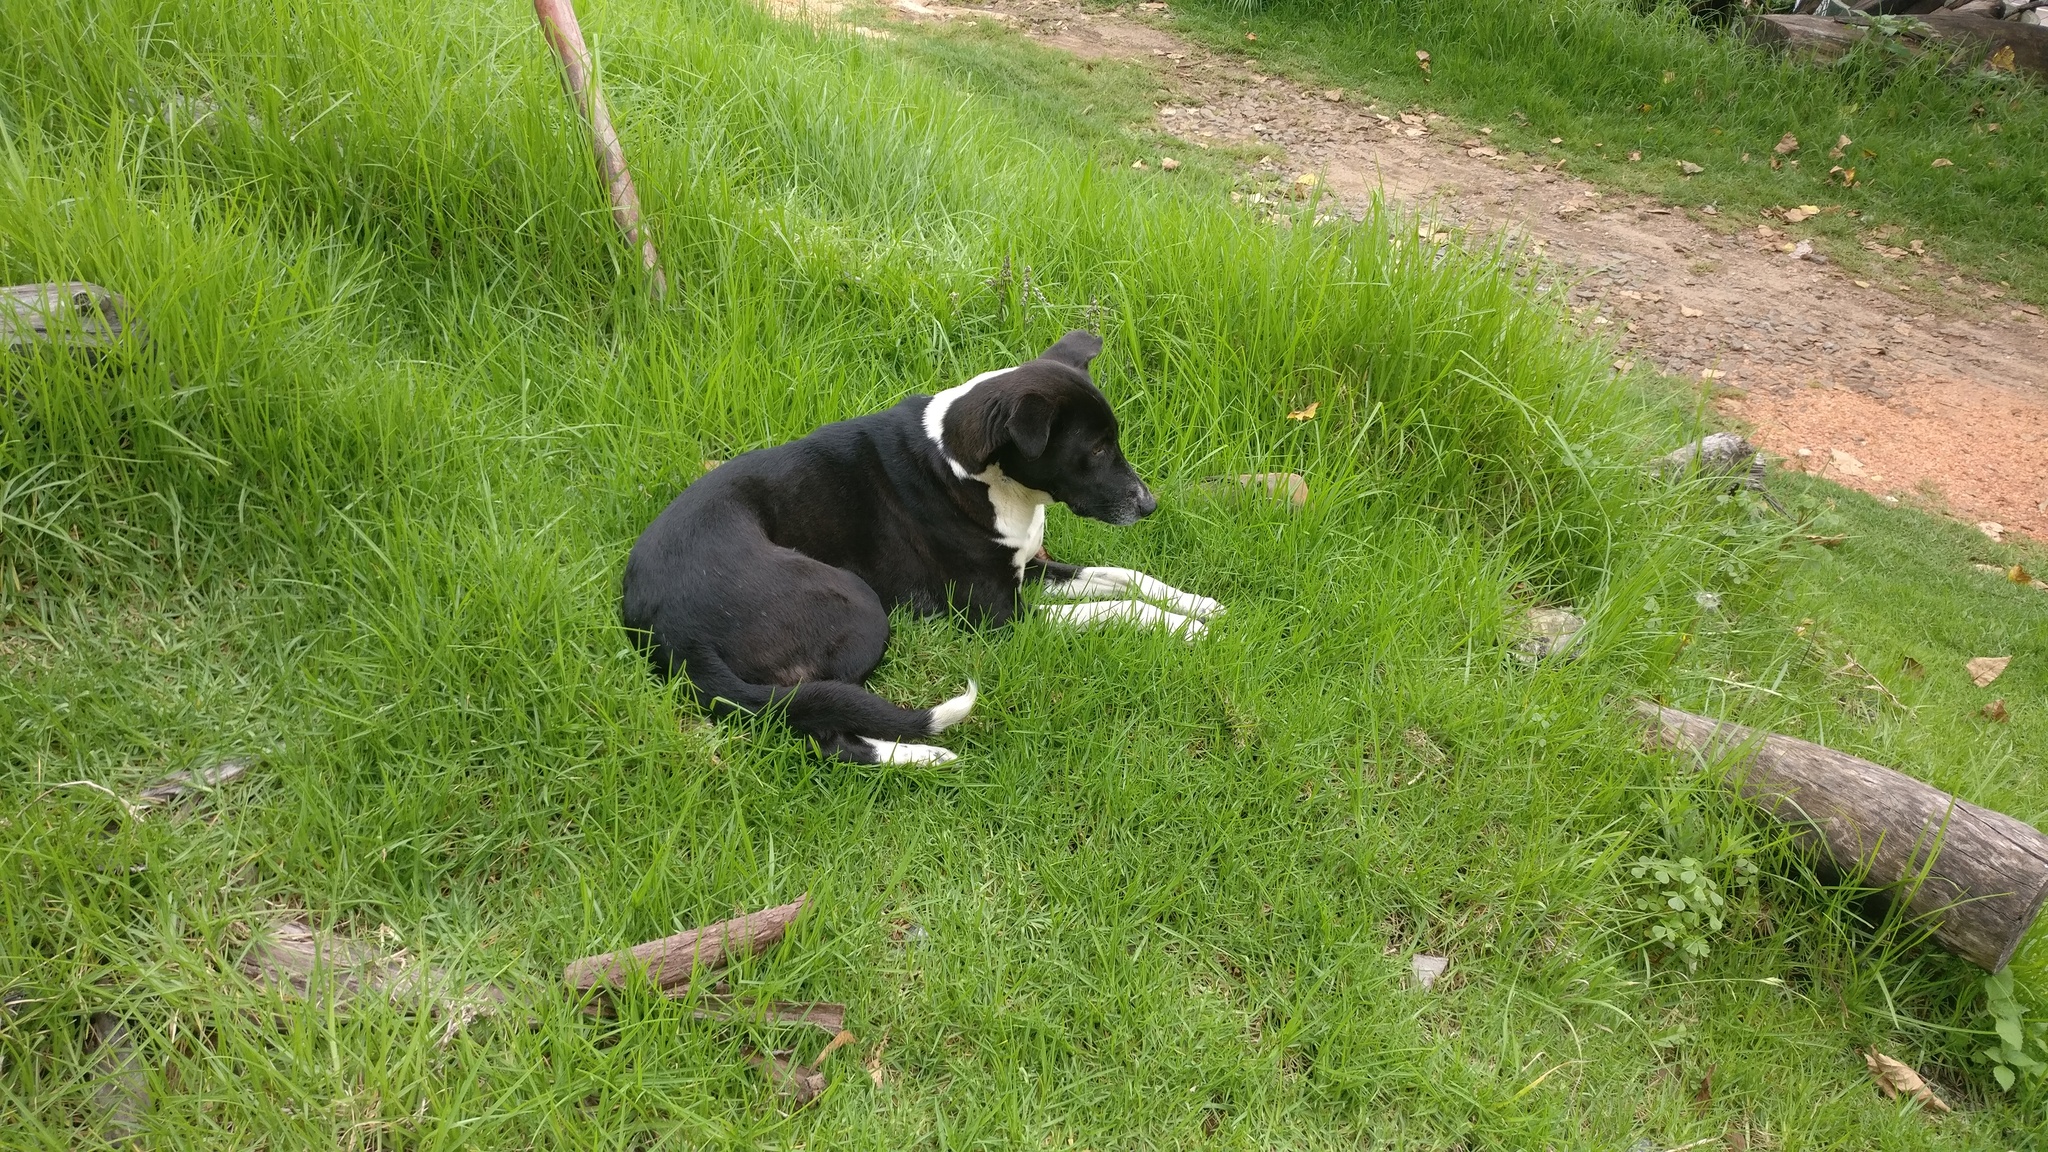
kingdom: Animalia
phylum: Chordata
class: Mammalia
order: Carnivora
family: Canidae
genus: Canis
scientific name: Canis lupus
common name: Gray wolf
